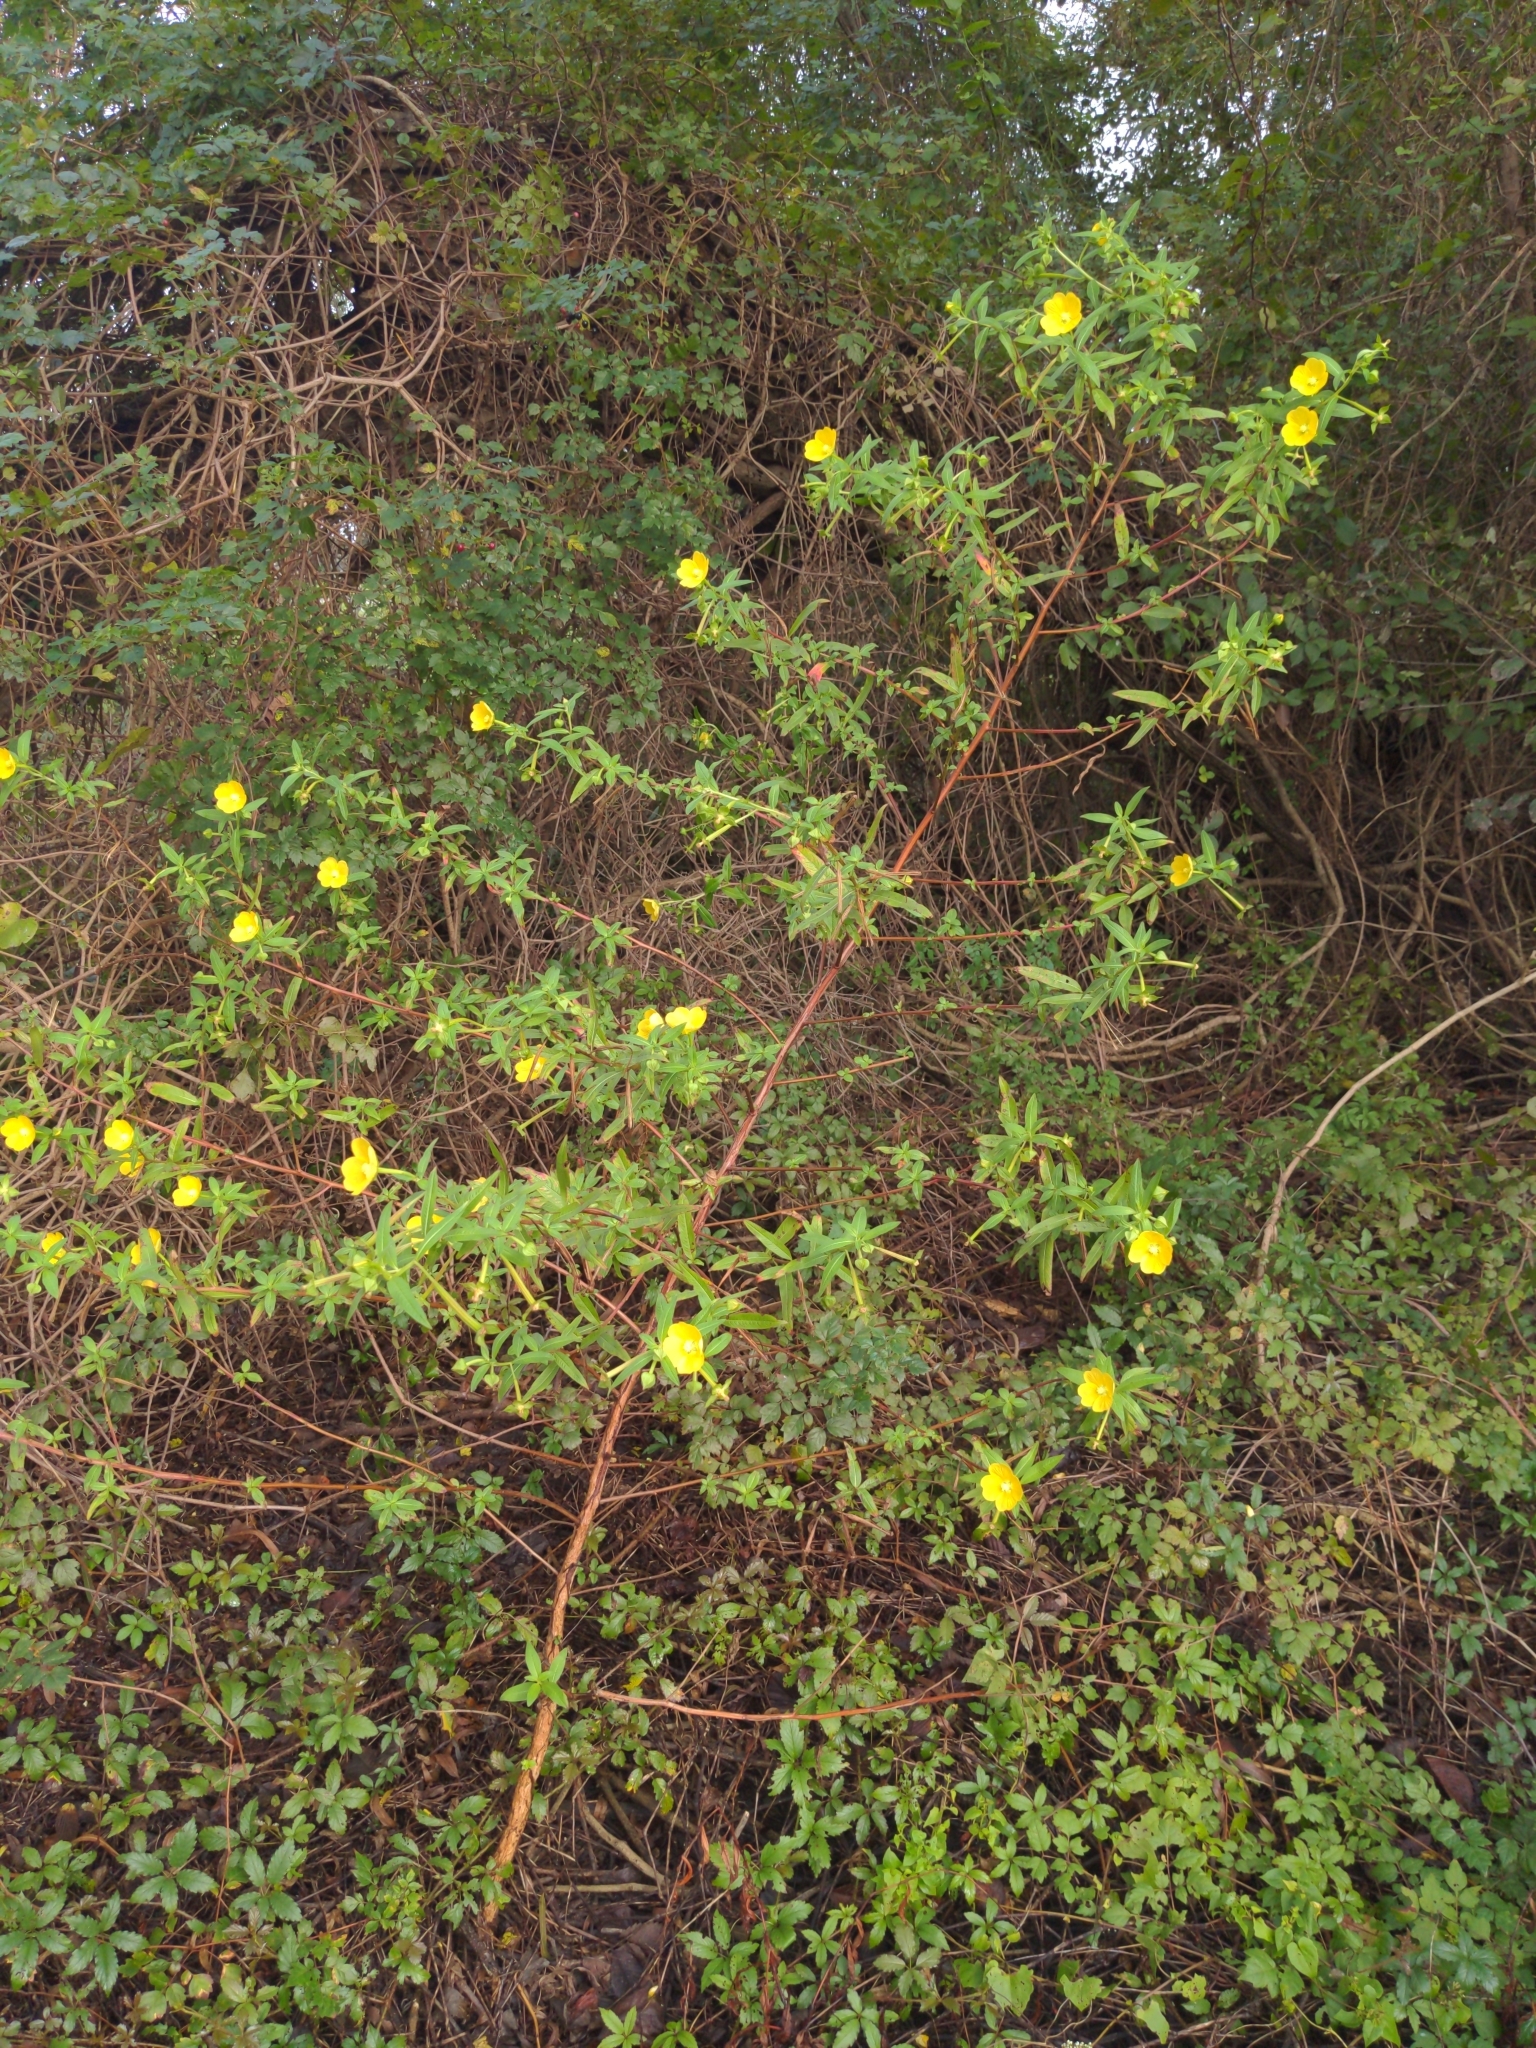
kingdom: Plantae
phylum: Tracheophyta
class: Magnoliopsida
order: Myrtales
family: Onagraceae
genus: Ludwigia
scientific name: Ludwigia octovalvis
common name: Water-primrose
